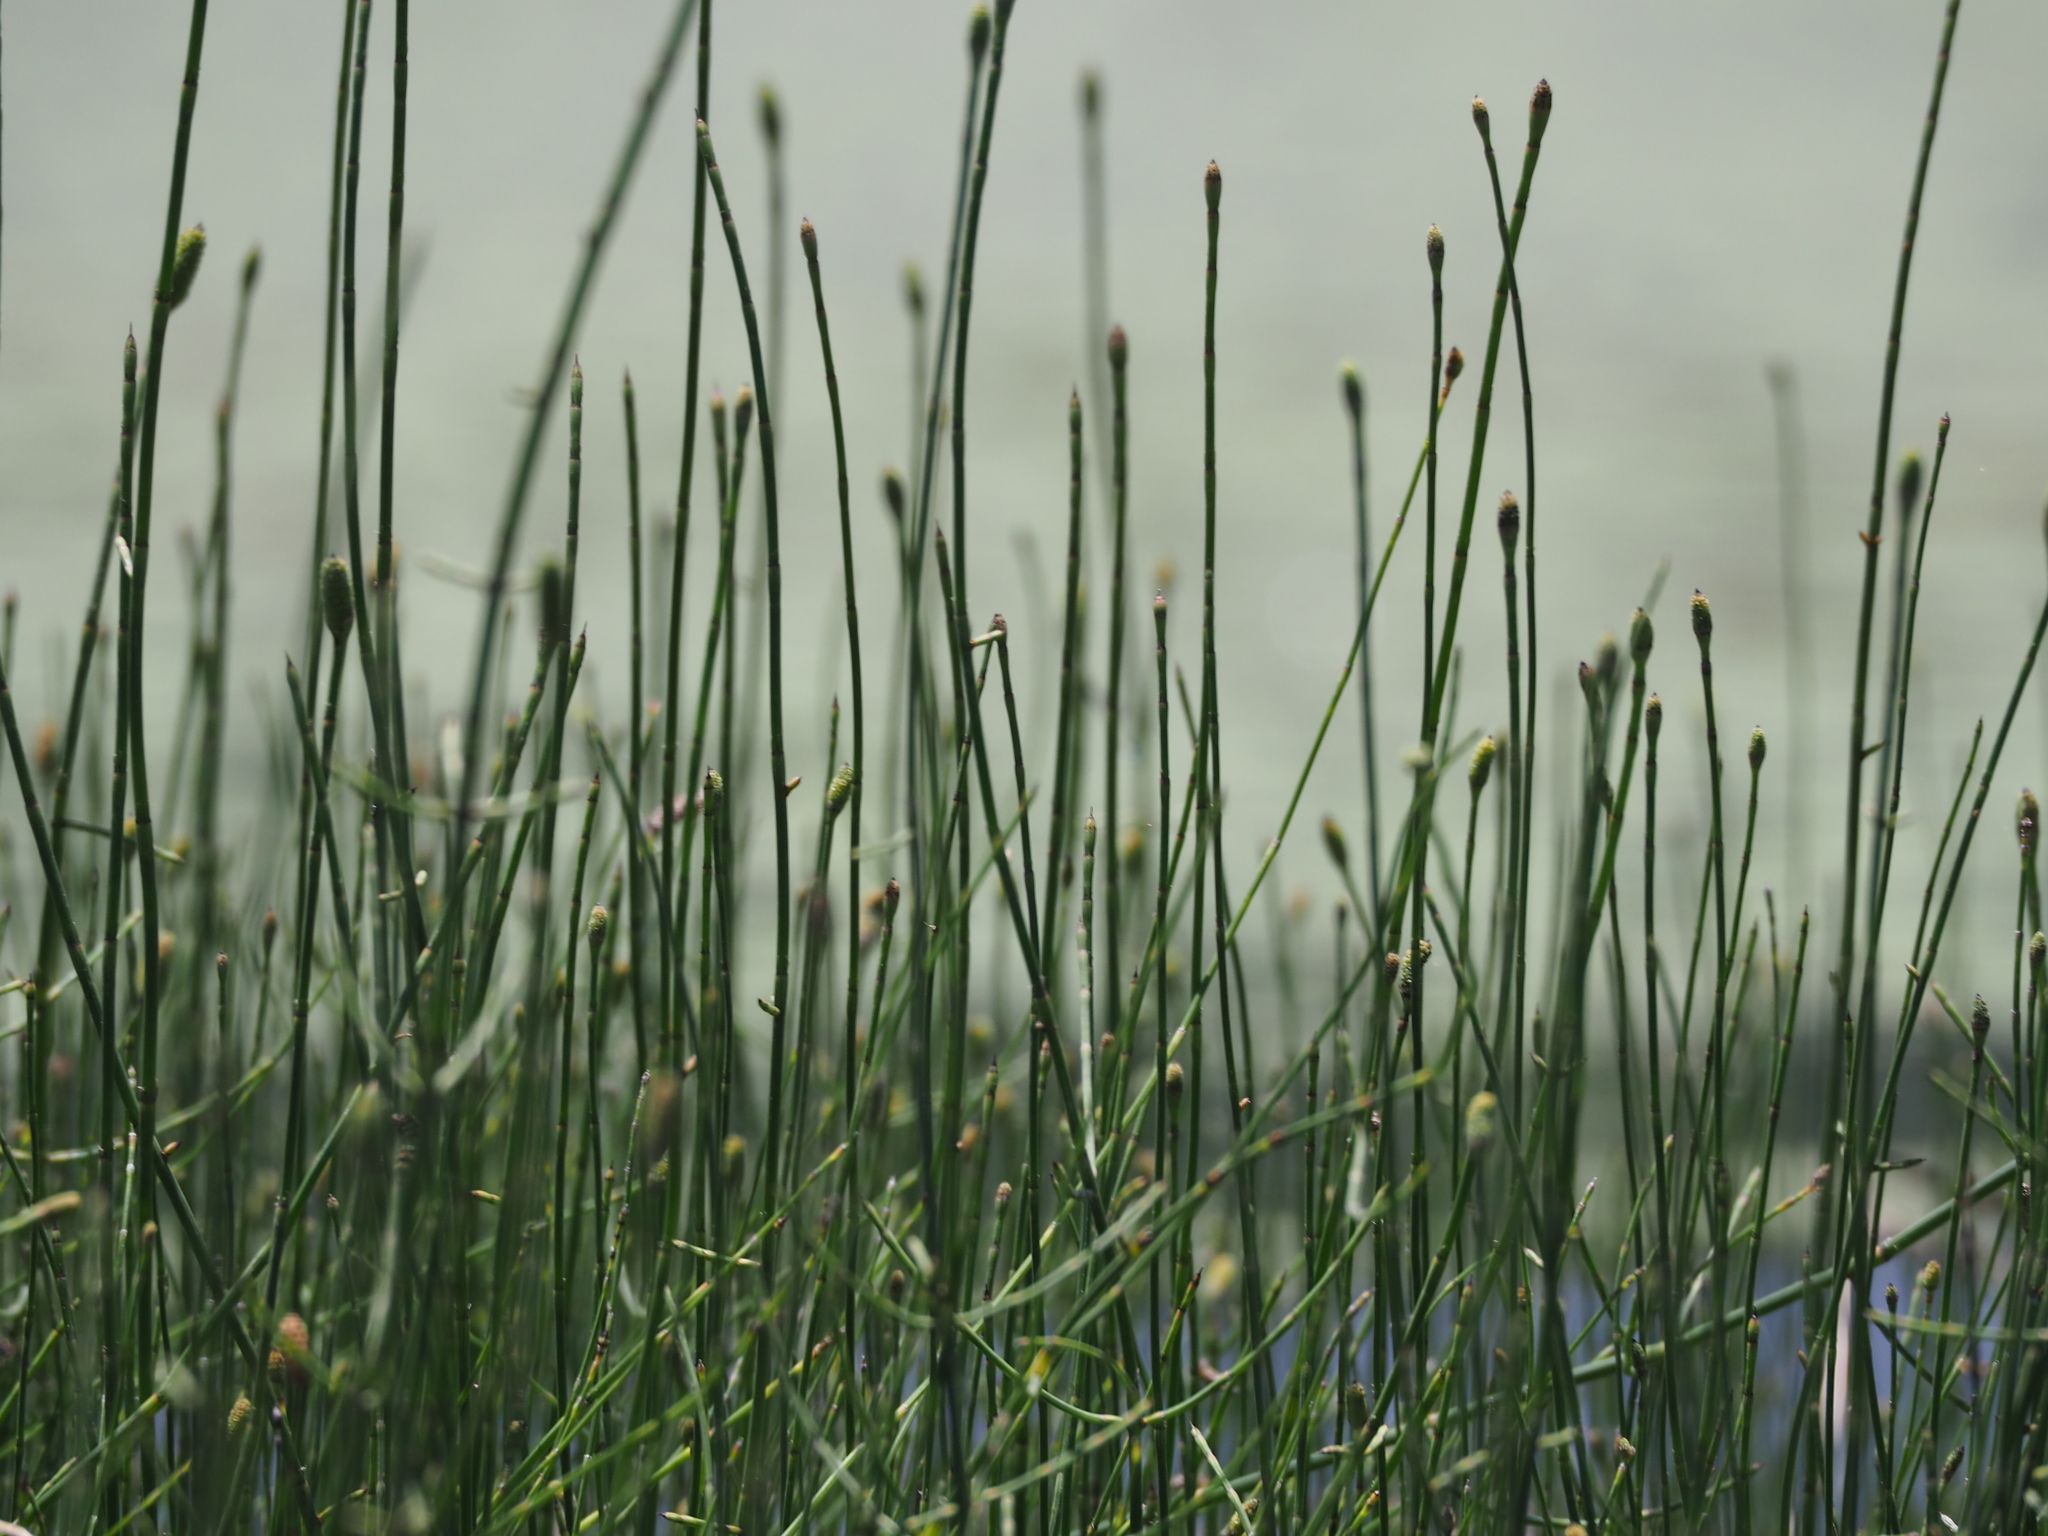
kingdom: Plantae
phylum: Tracheophyta
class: Polypodiopsida
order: Equisetales
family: Equisetaceae
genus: Equisetum
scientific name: Equisetum ramosissimum
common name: Branched horsetail
